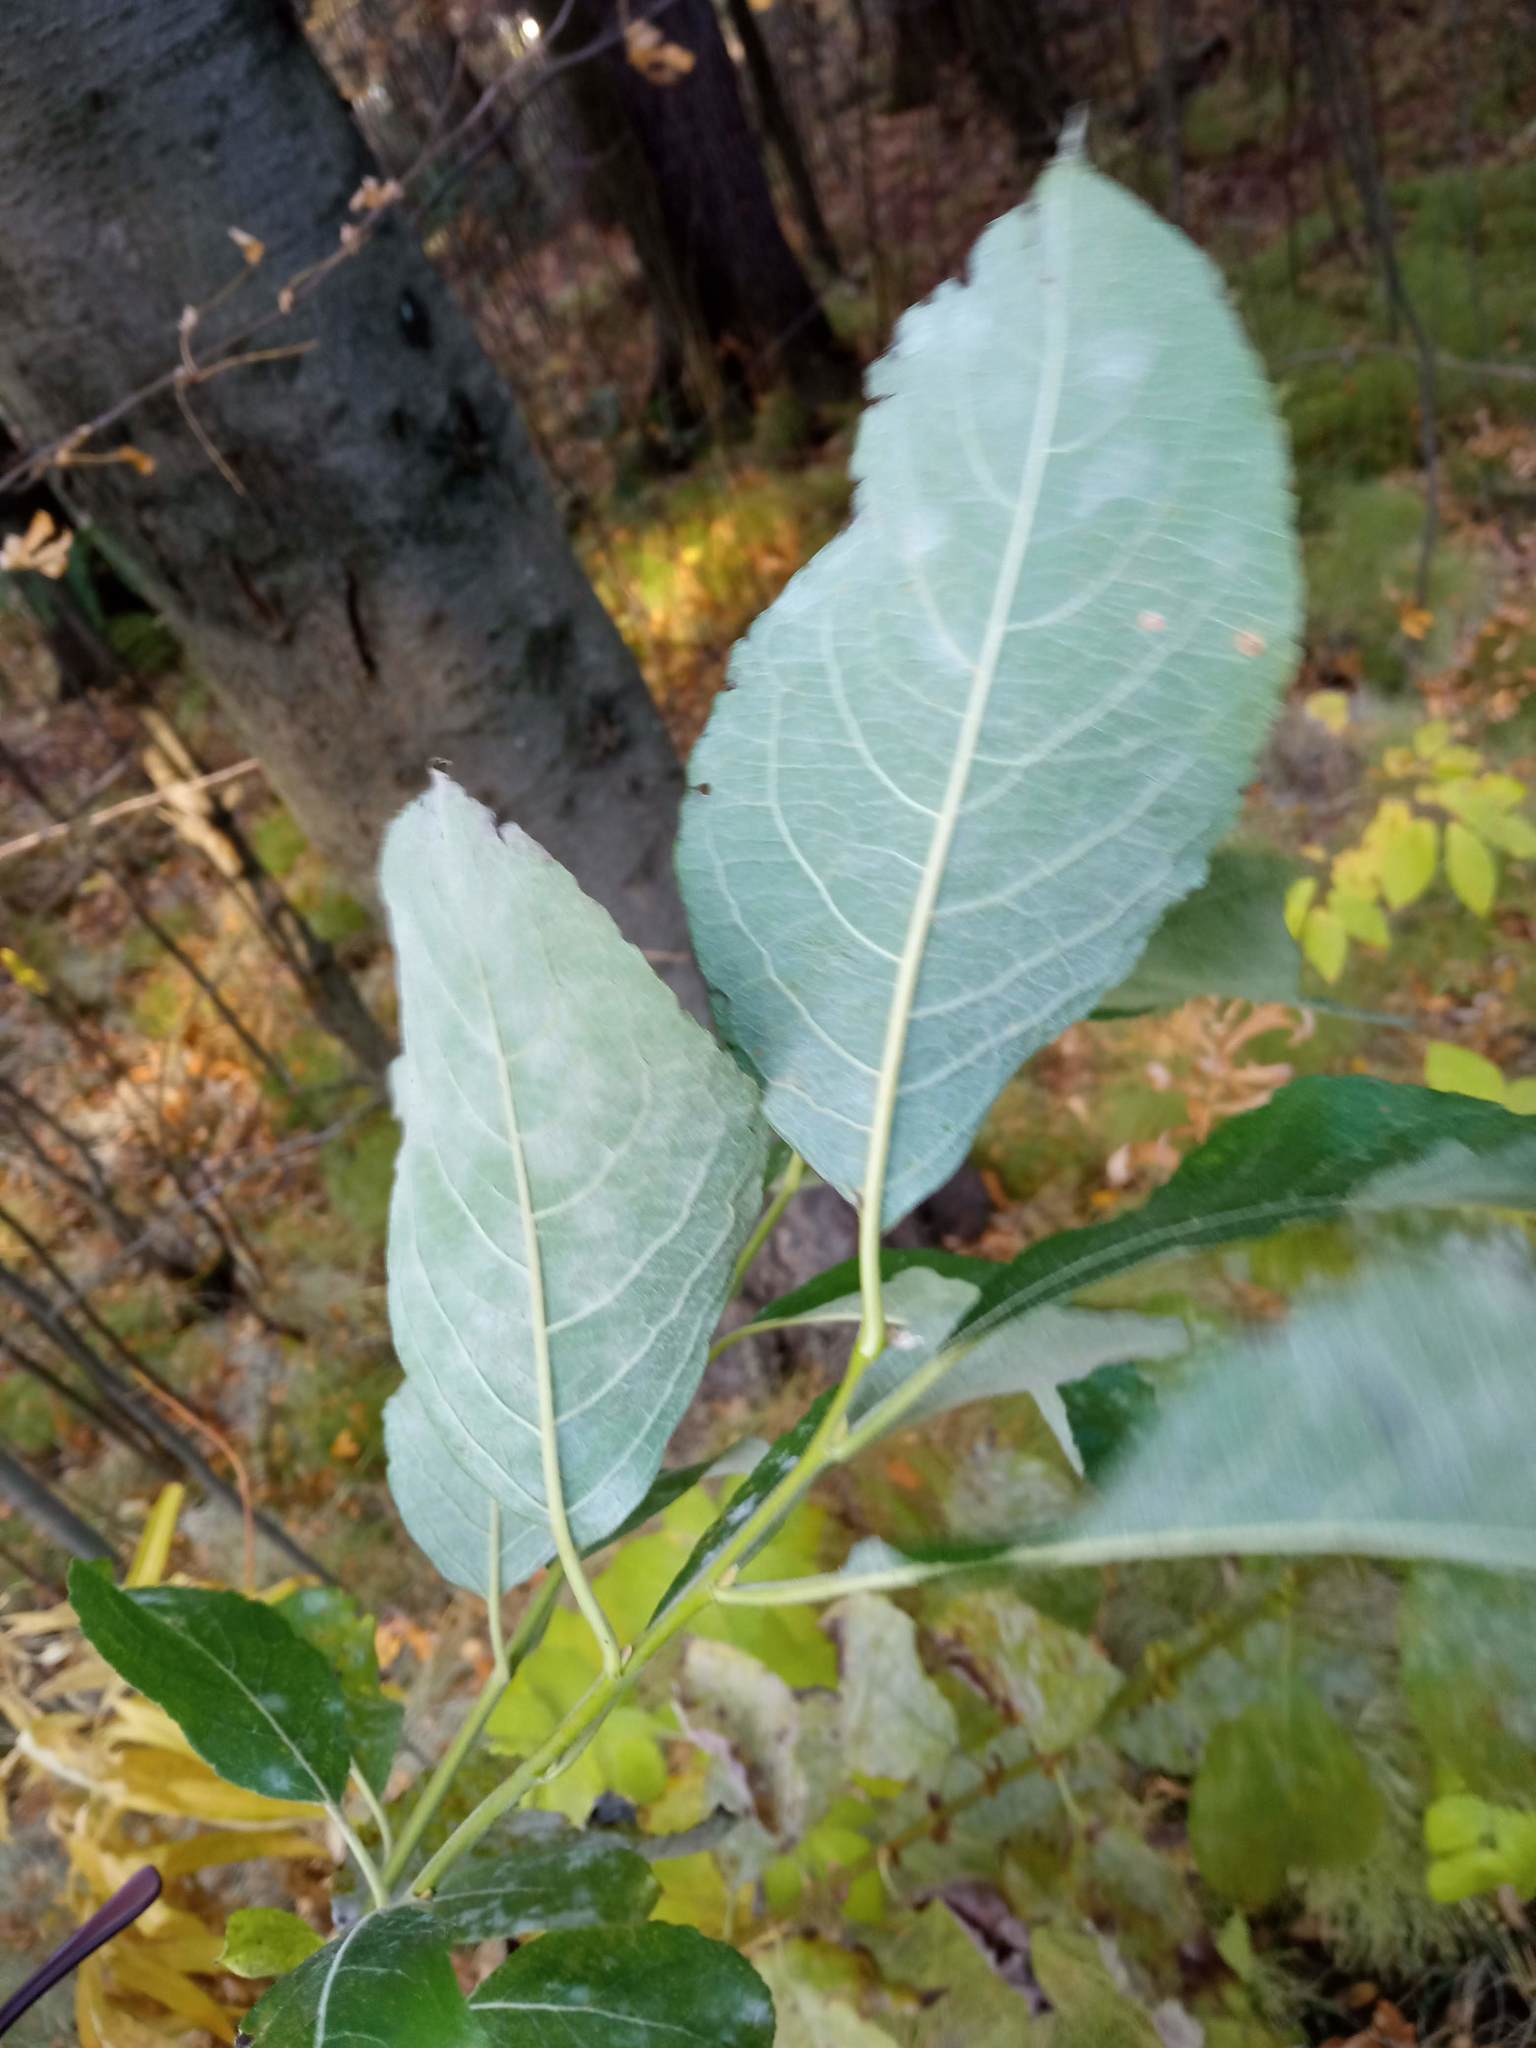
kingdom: Plantae
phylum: Tracheophyta
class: Magnoliopsida
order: Malpighiales
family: Salicaceae
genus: Salix
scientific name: Salix caprea
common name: Goat willow
